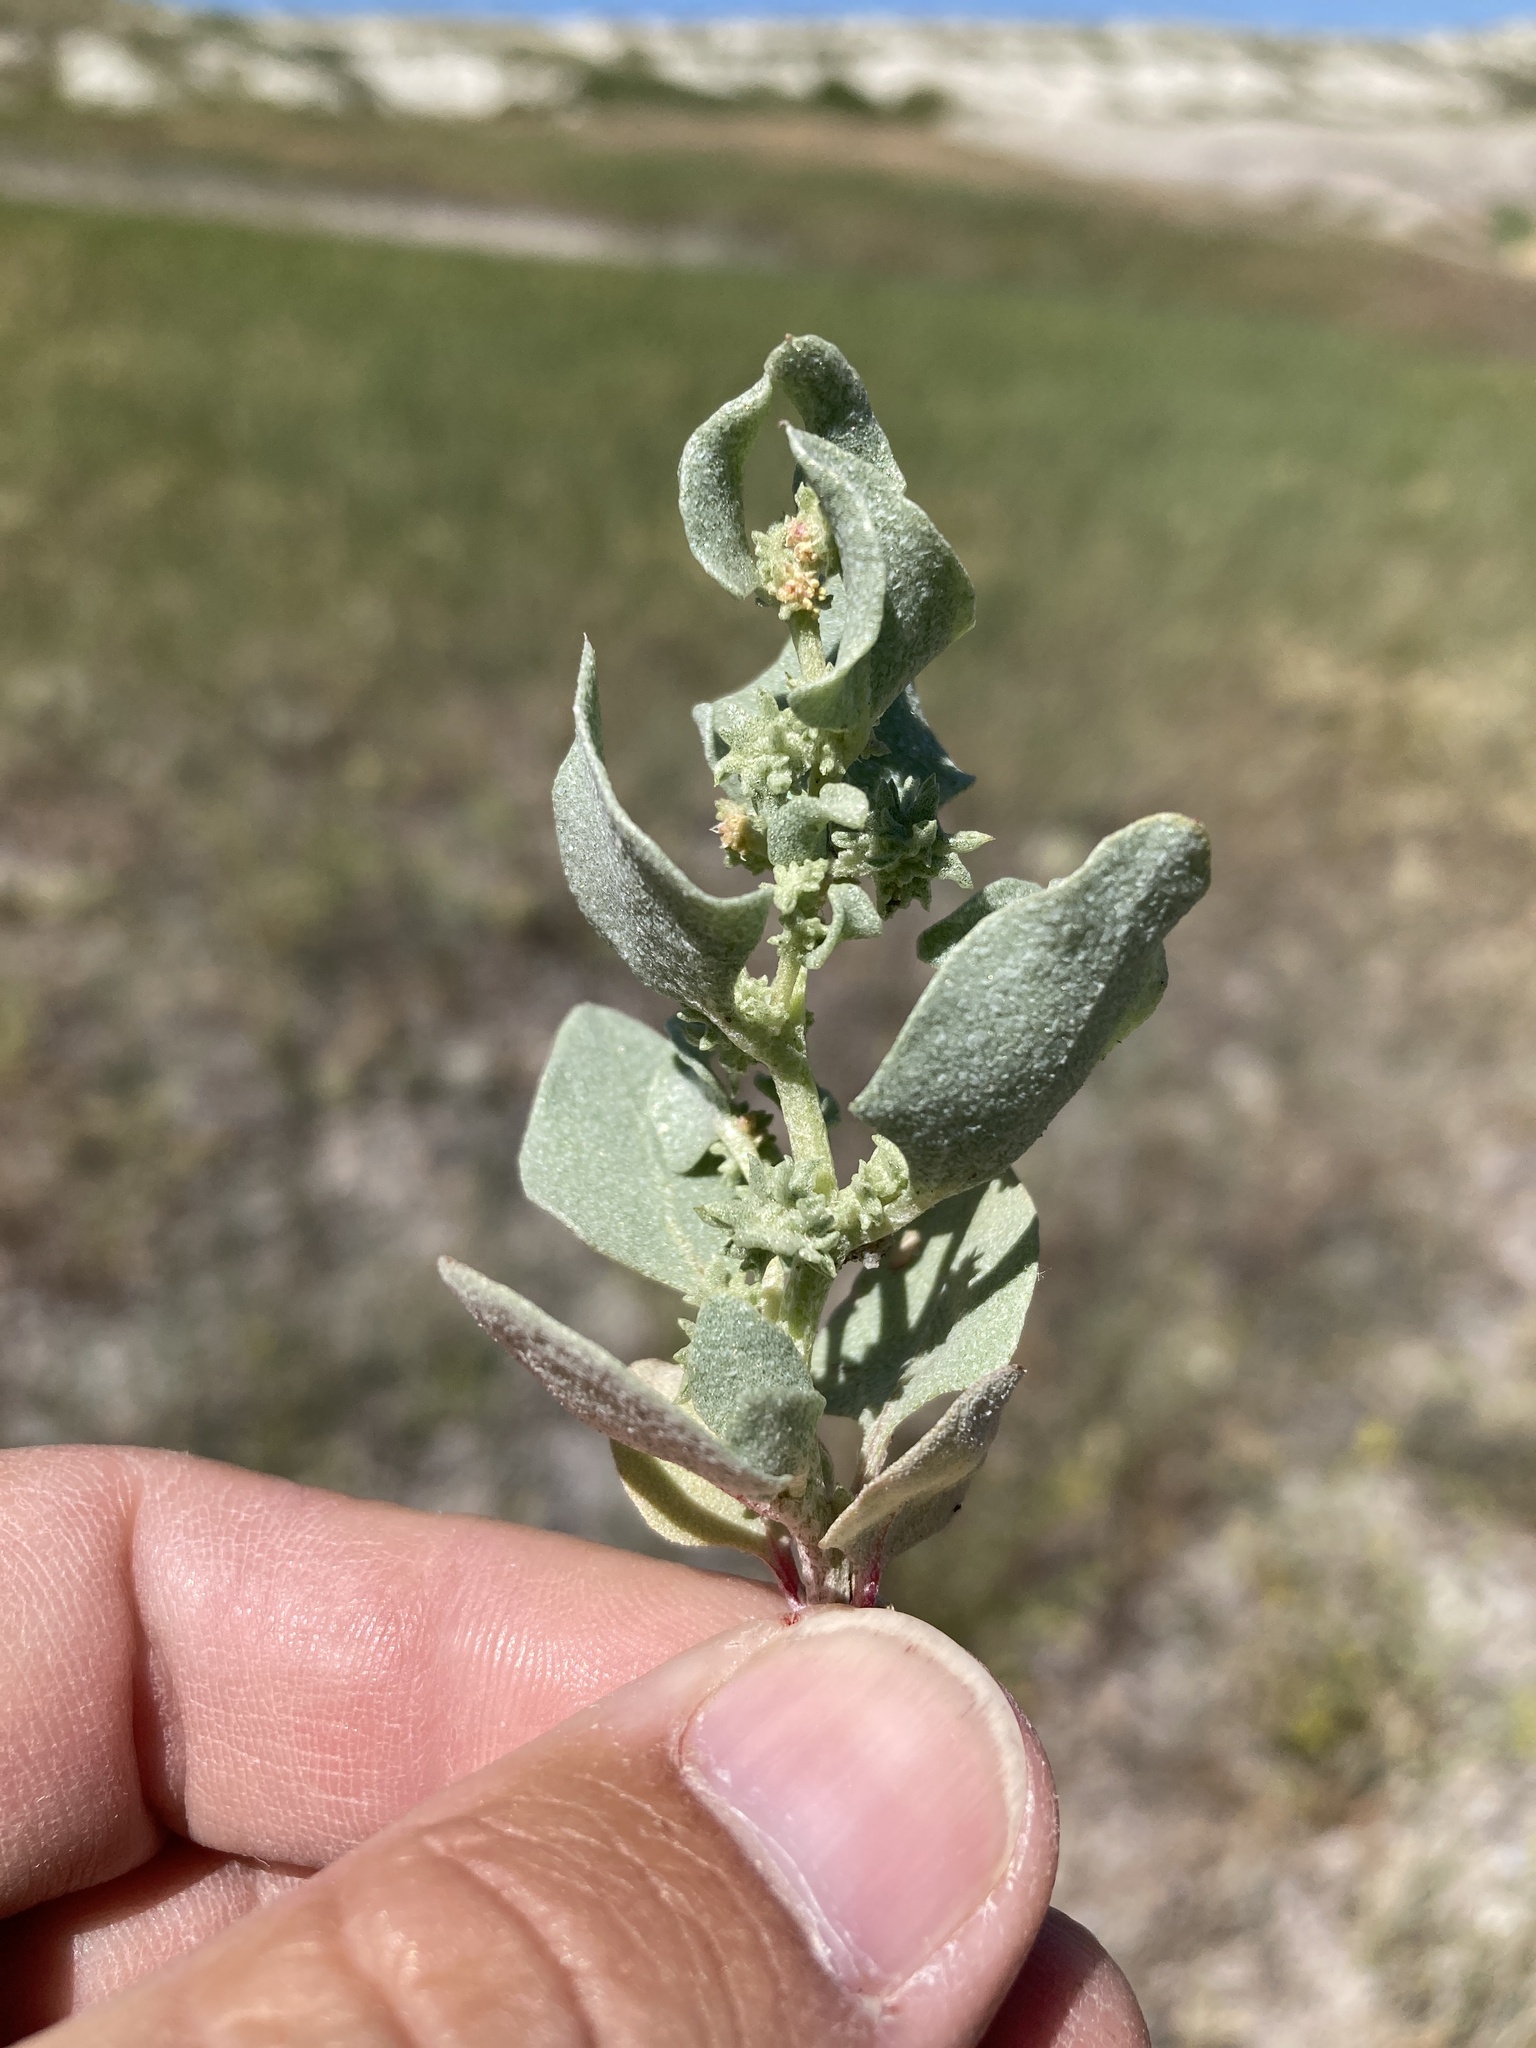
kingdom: Plantae
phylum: Tracheophyta
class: Magnoliopsida
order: Caryophyllales
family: Amaranthaceae
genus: Atriplex
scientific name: Atriplex argentea
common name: Silverscale
